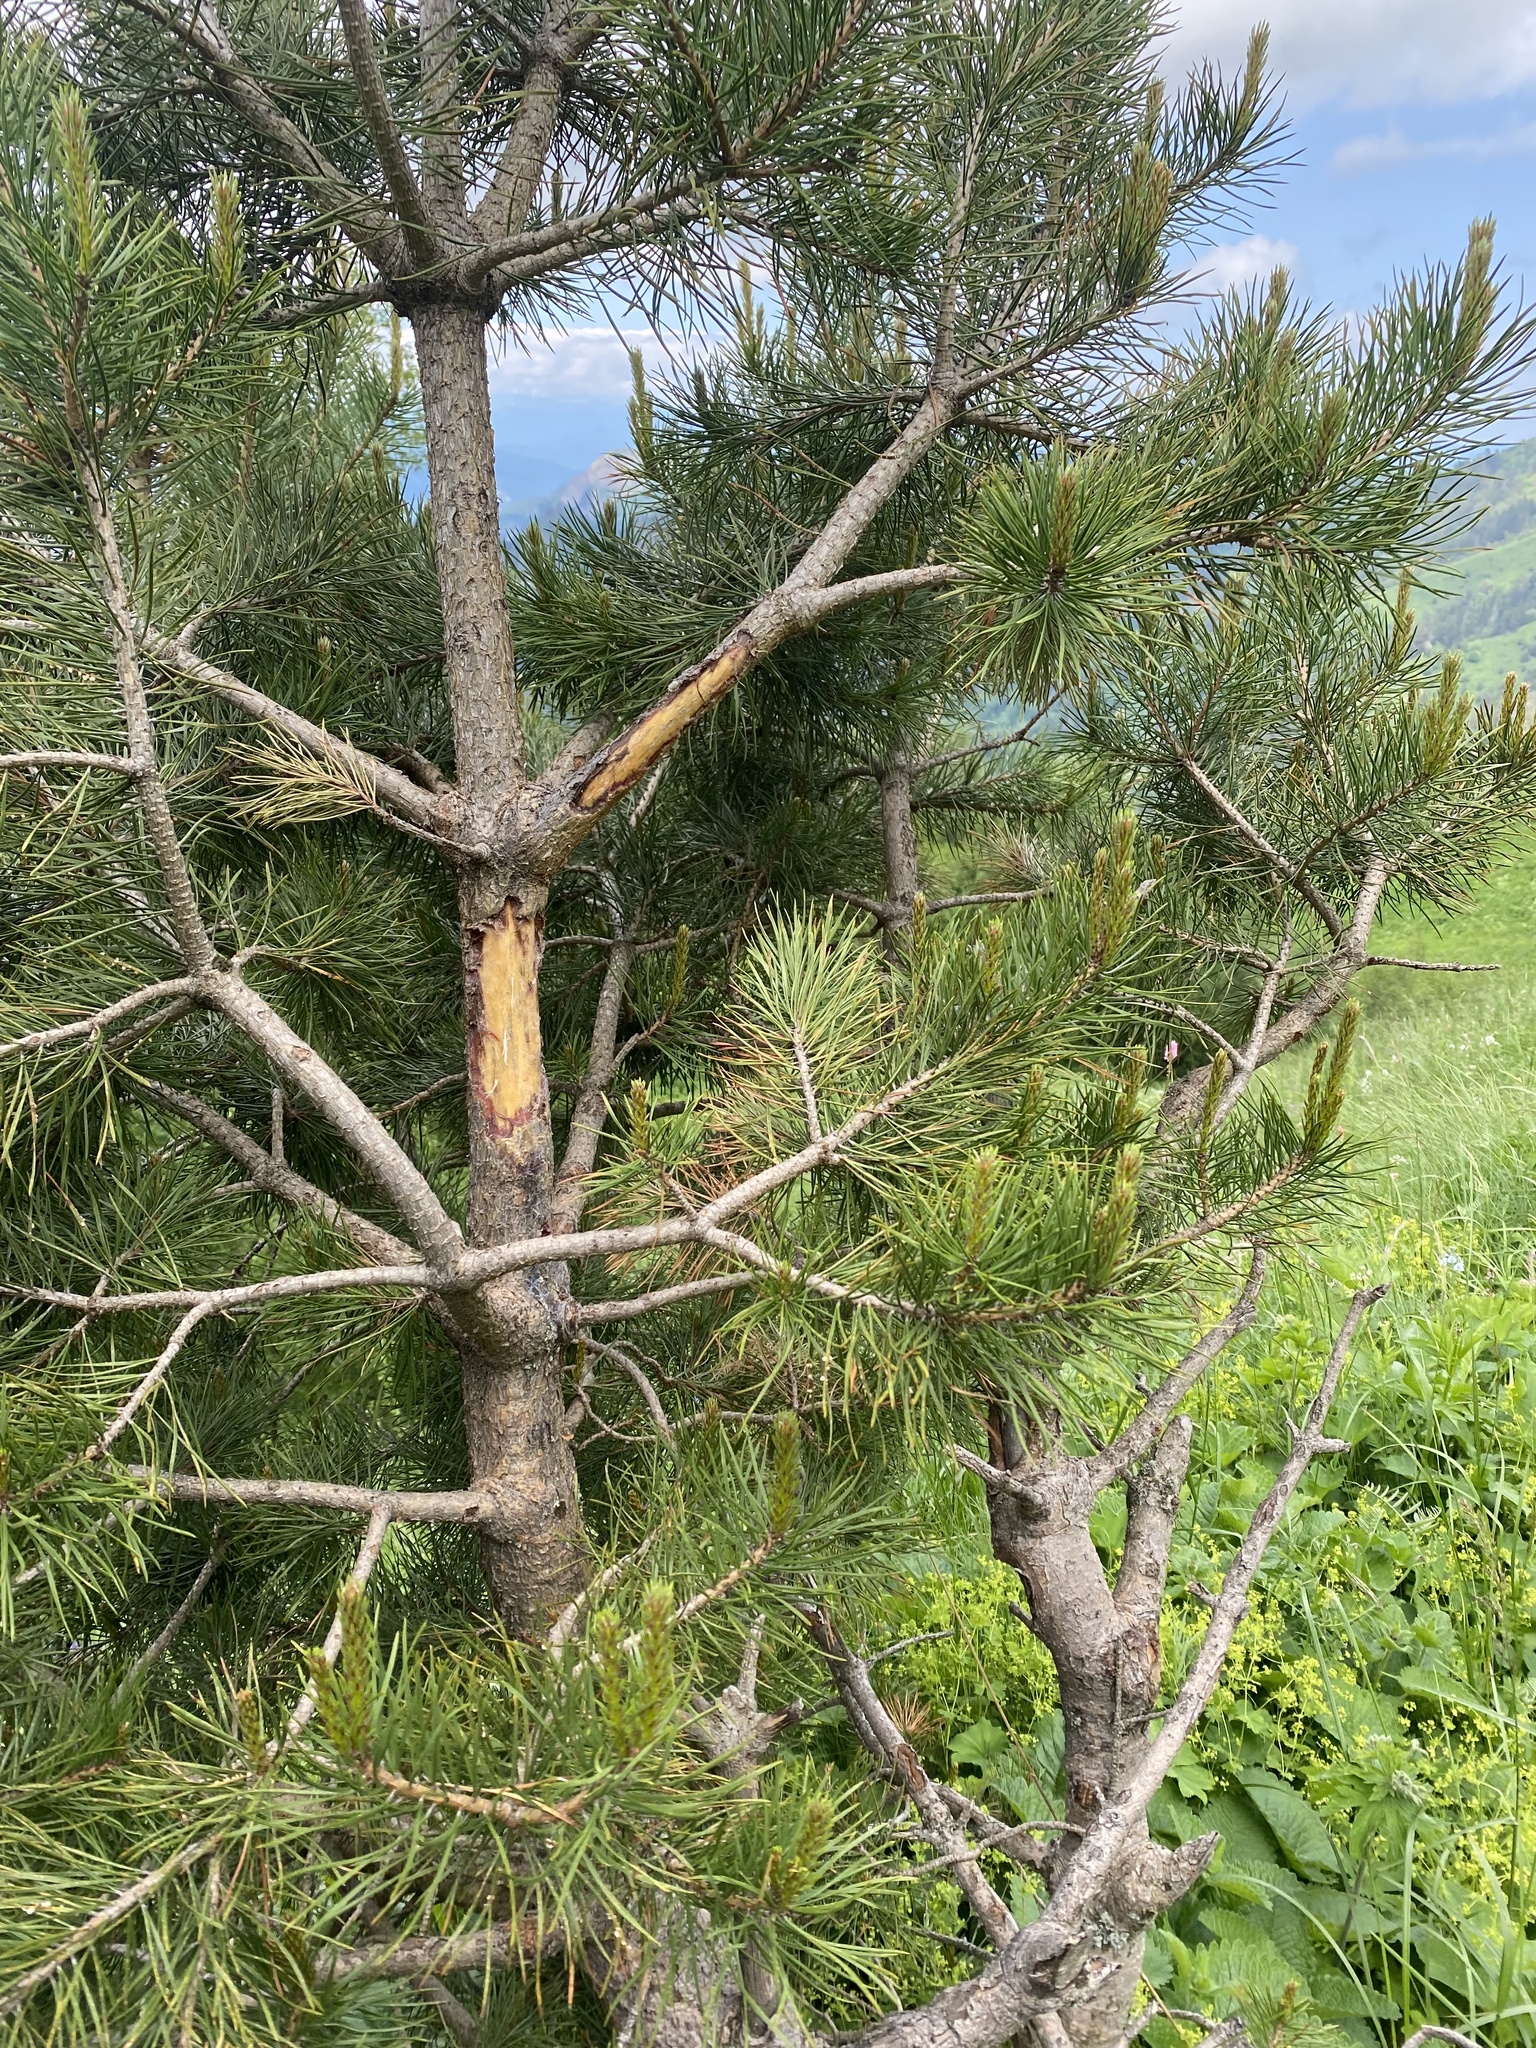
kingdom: Plantae
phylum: Tracheophyta
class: Pinopsida
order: Pinales
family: Pinaceae
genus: Pinus
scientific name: Pinus sylvestris
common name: Scots pine
